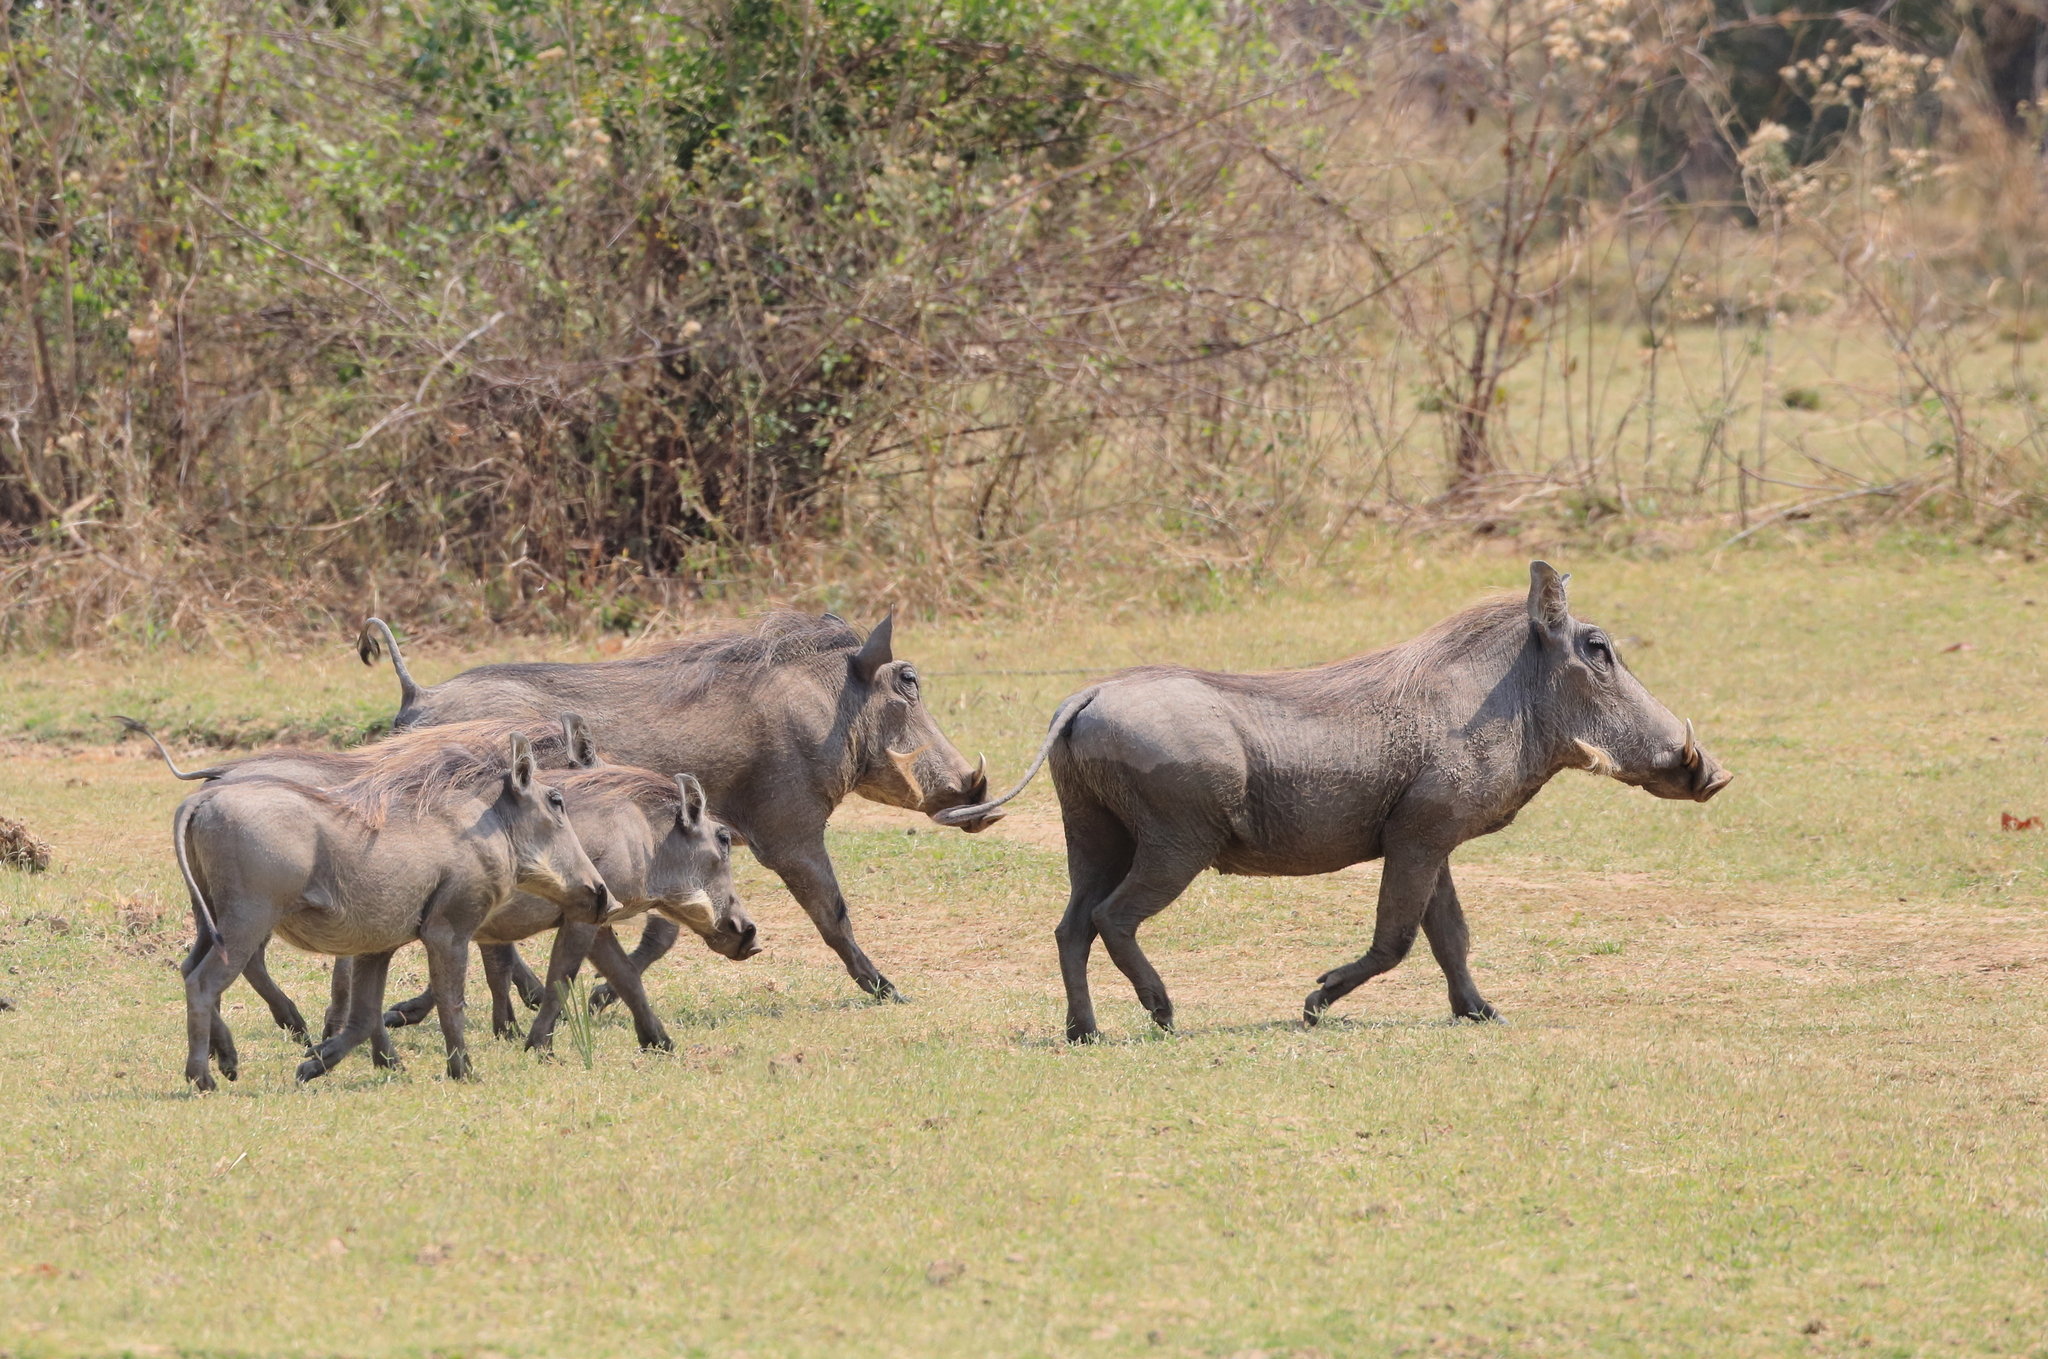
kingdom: Animalia
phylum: Chordata
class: Mammalia
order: Artiodactyla
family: Suidae
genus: Phacochoerus
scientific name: Phacochoerus africanus
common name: Common warthog
